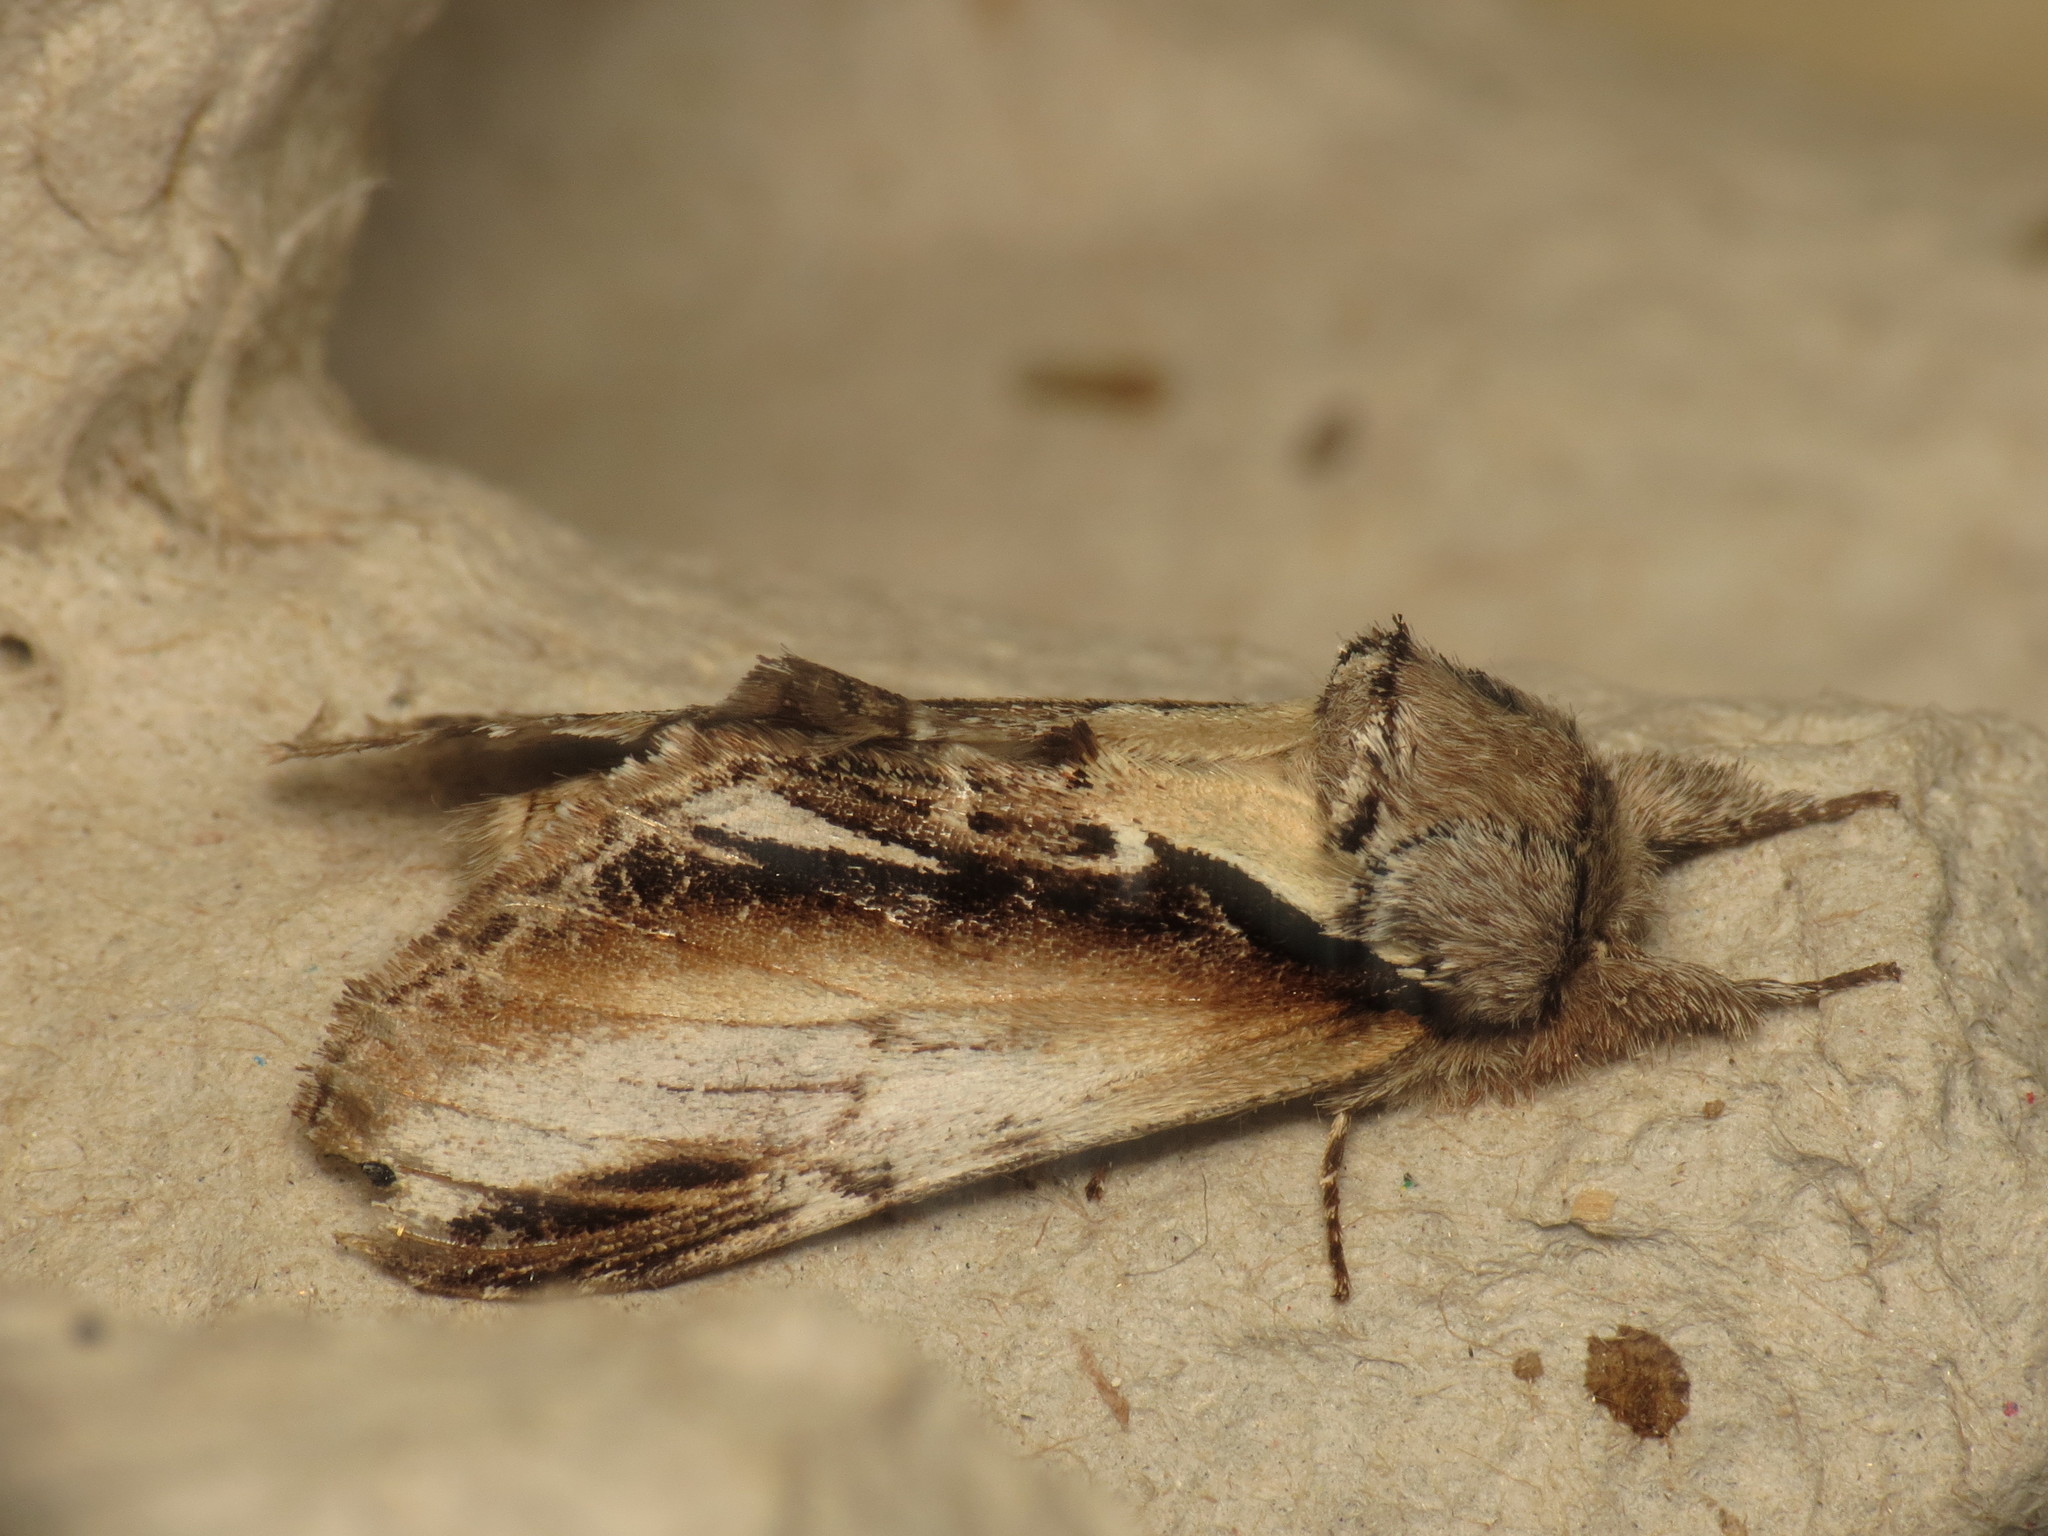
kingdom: Animalia
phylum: Arthropoda
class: Insecta
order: Lepidoptera
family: Notodontidae
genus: Pheosia
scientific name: Pheosia gnoma
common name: Lesser swallow prominent
